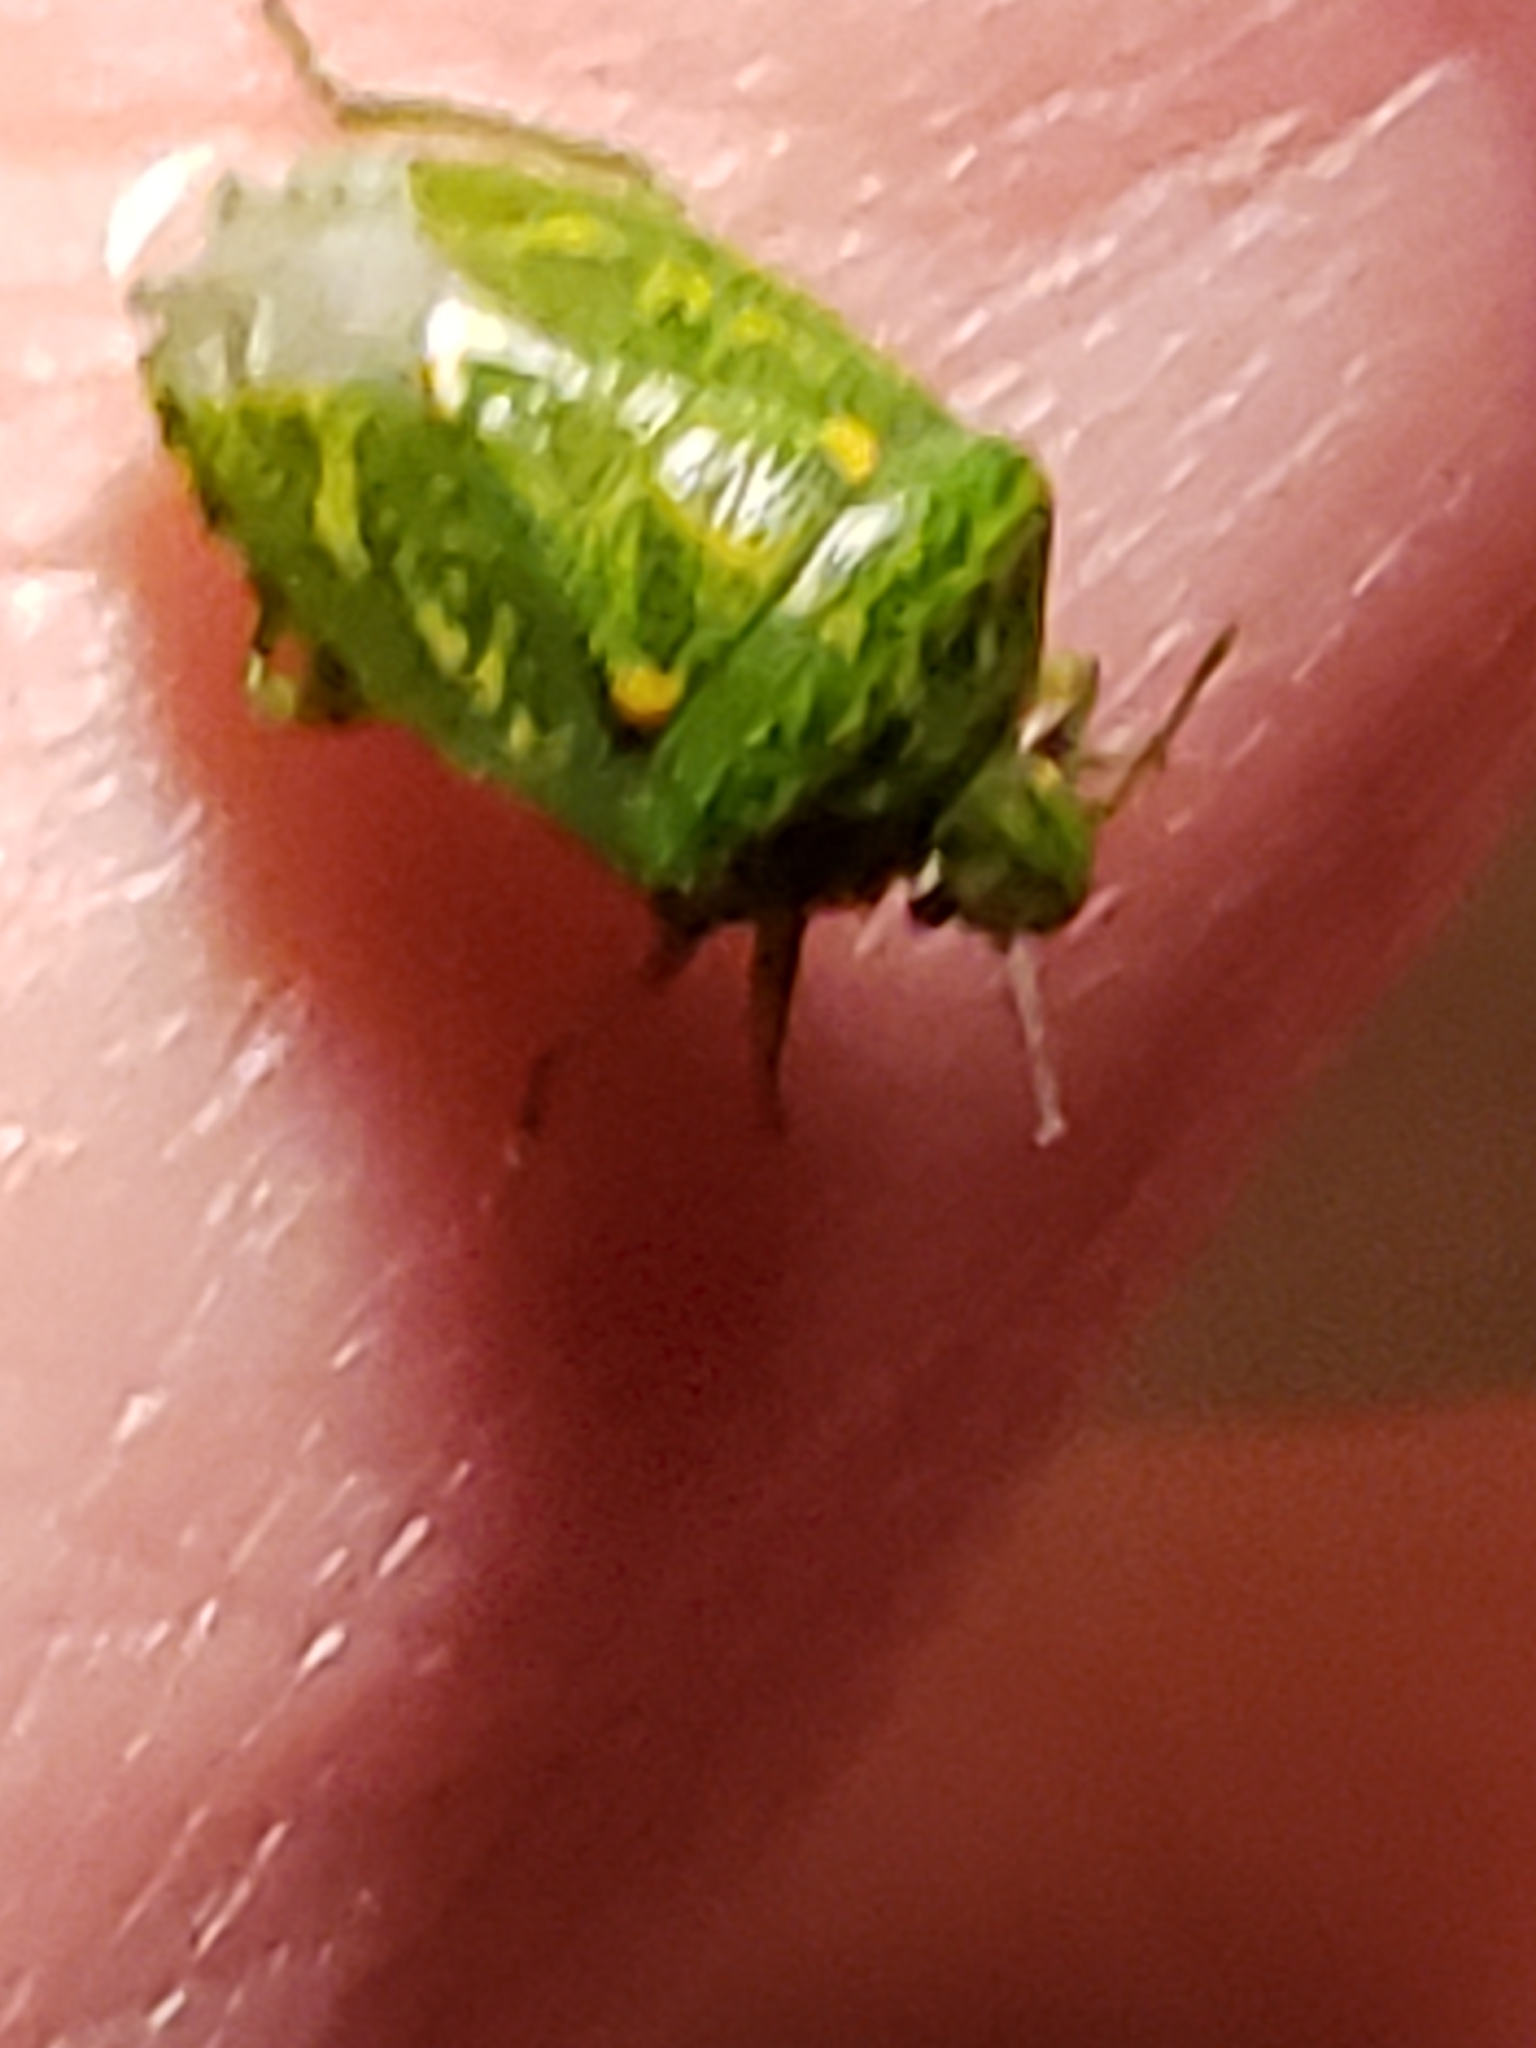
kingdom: Animalia
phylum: Arthropoda
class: Insecta
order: Hemiptera
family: Pentatomidae
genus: Banasa
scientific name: Banasa euchlora
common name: Cedar berry bug
